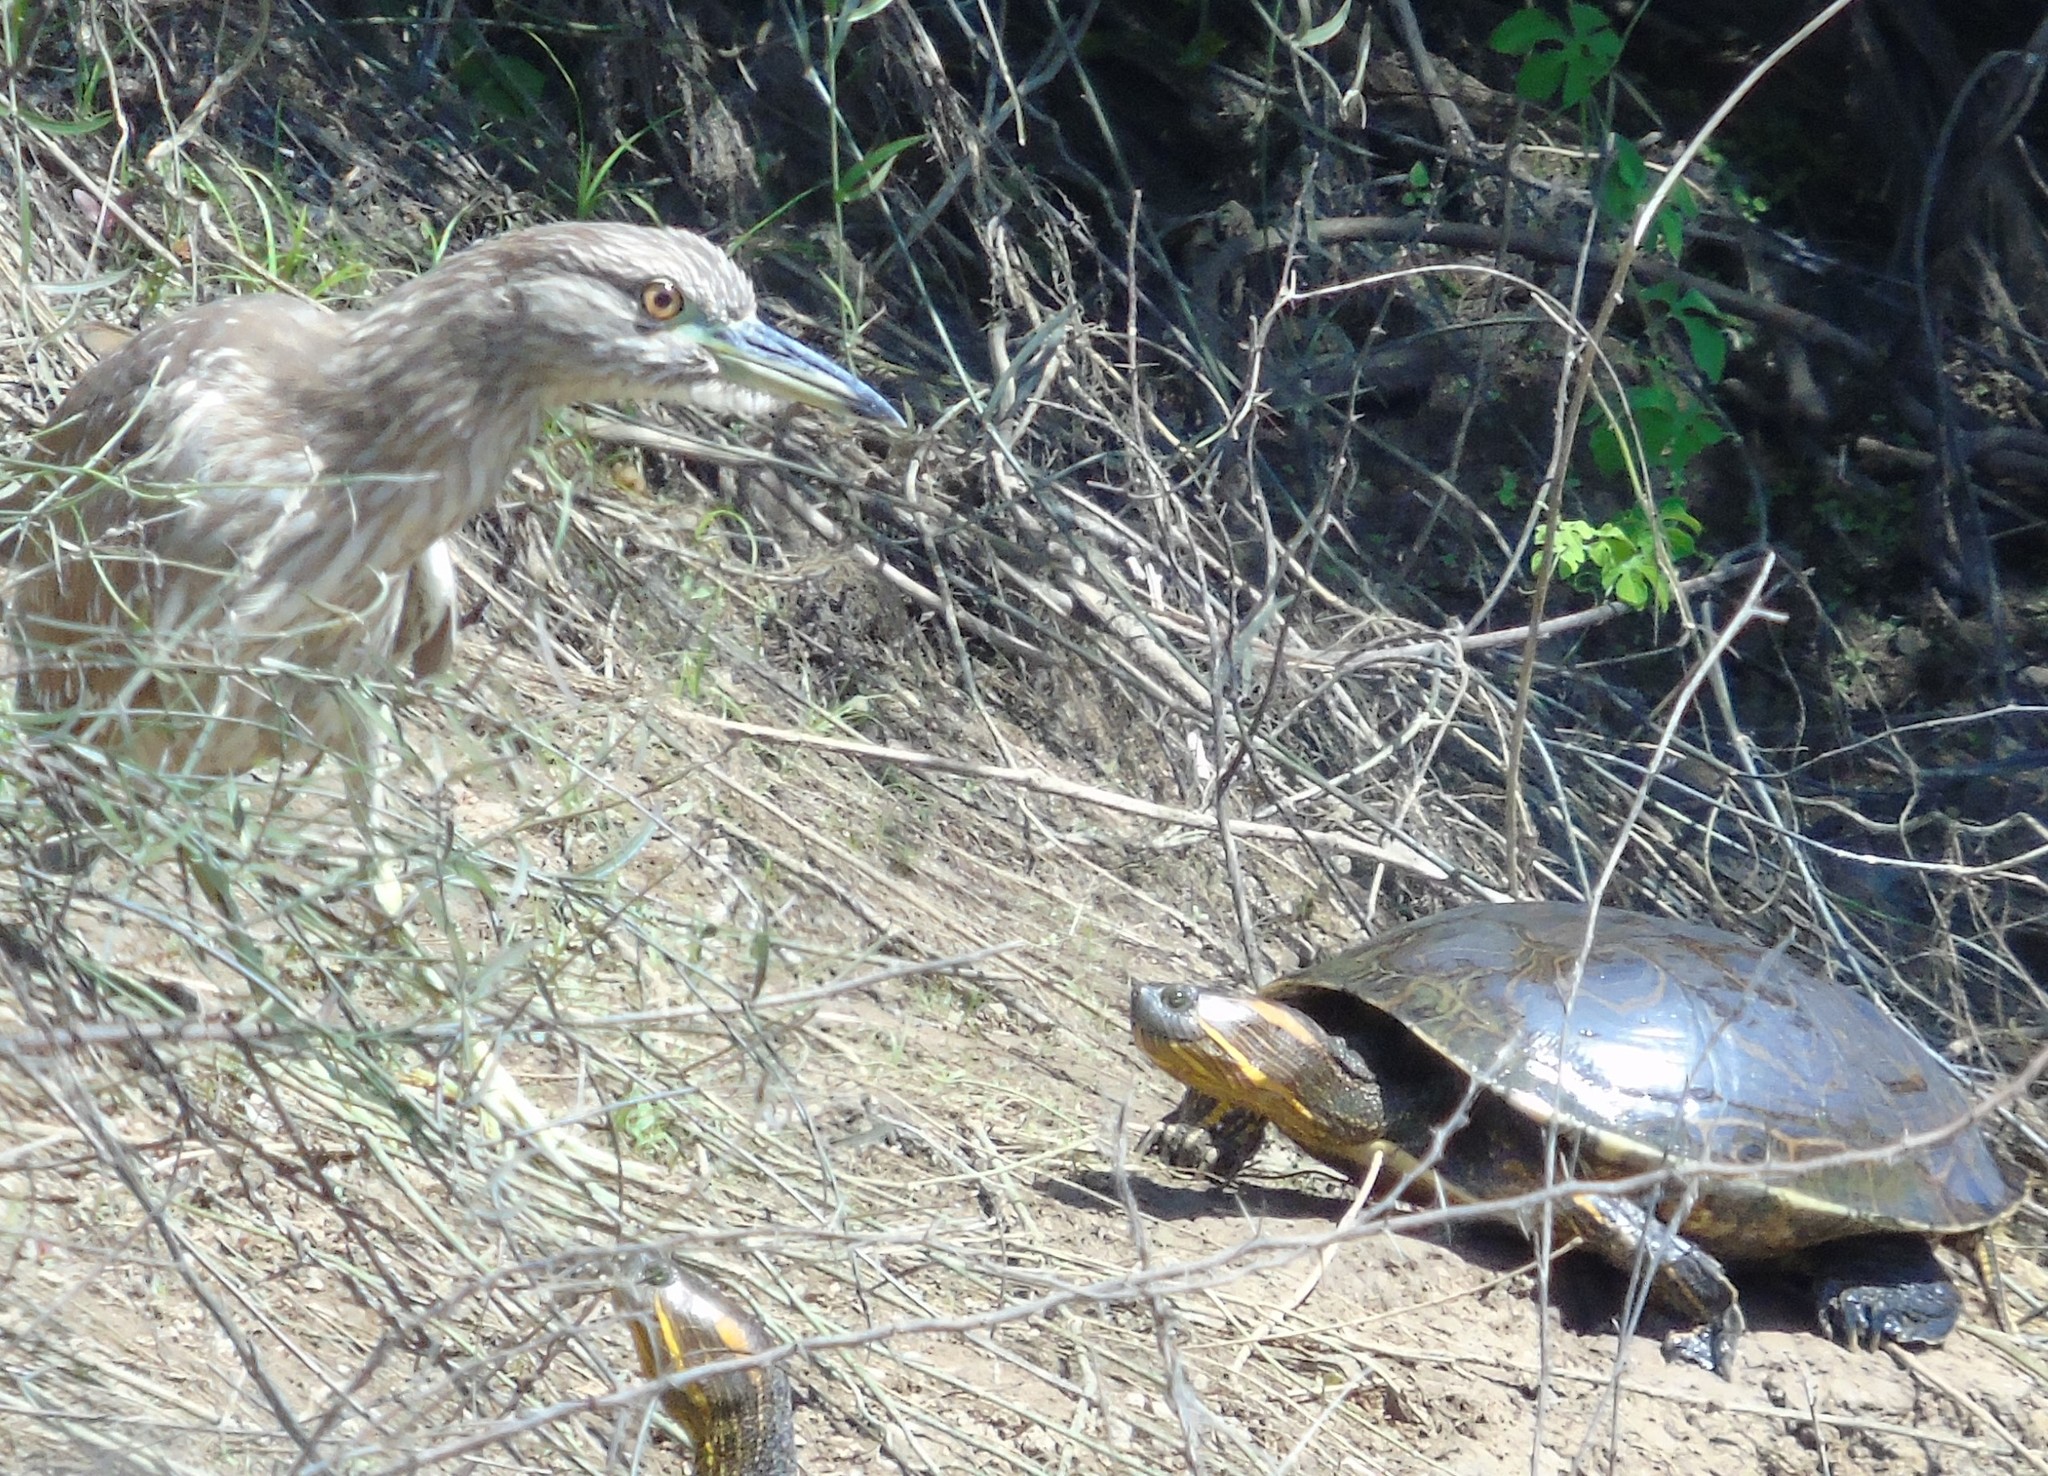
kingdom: Animalia
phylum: Chordata
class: Testudines
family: Emydidae
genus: Trachemys
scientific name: Trachemys ornata
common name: Ornate slider
